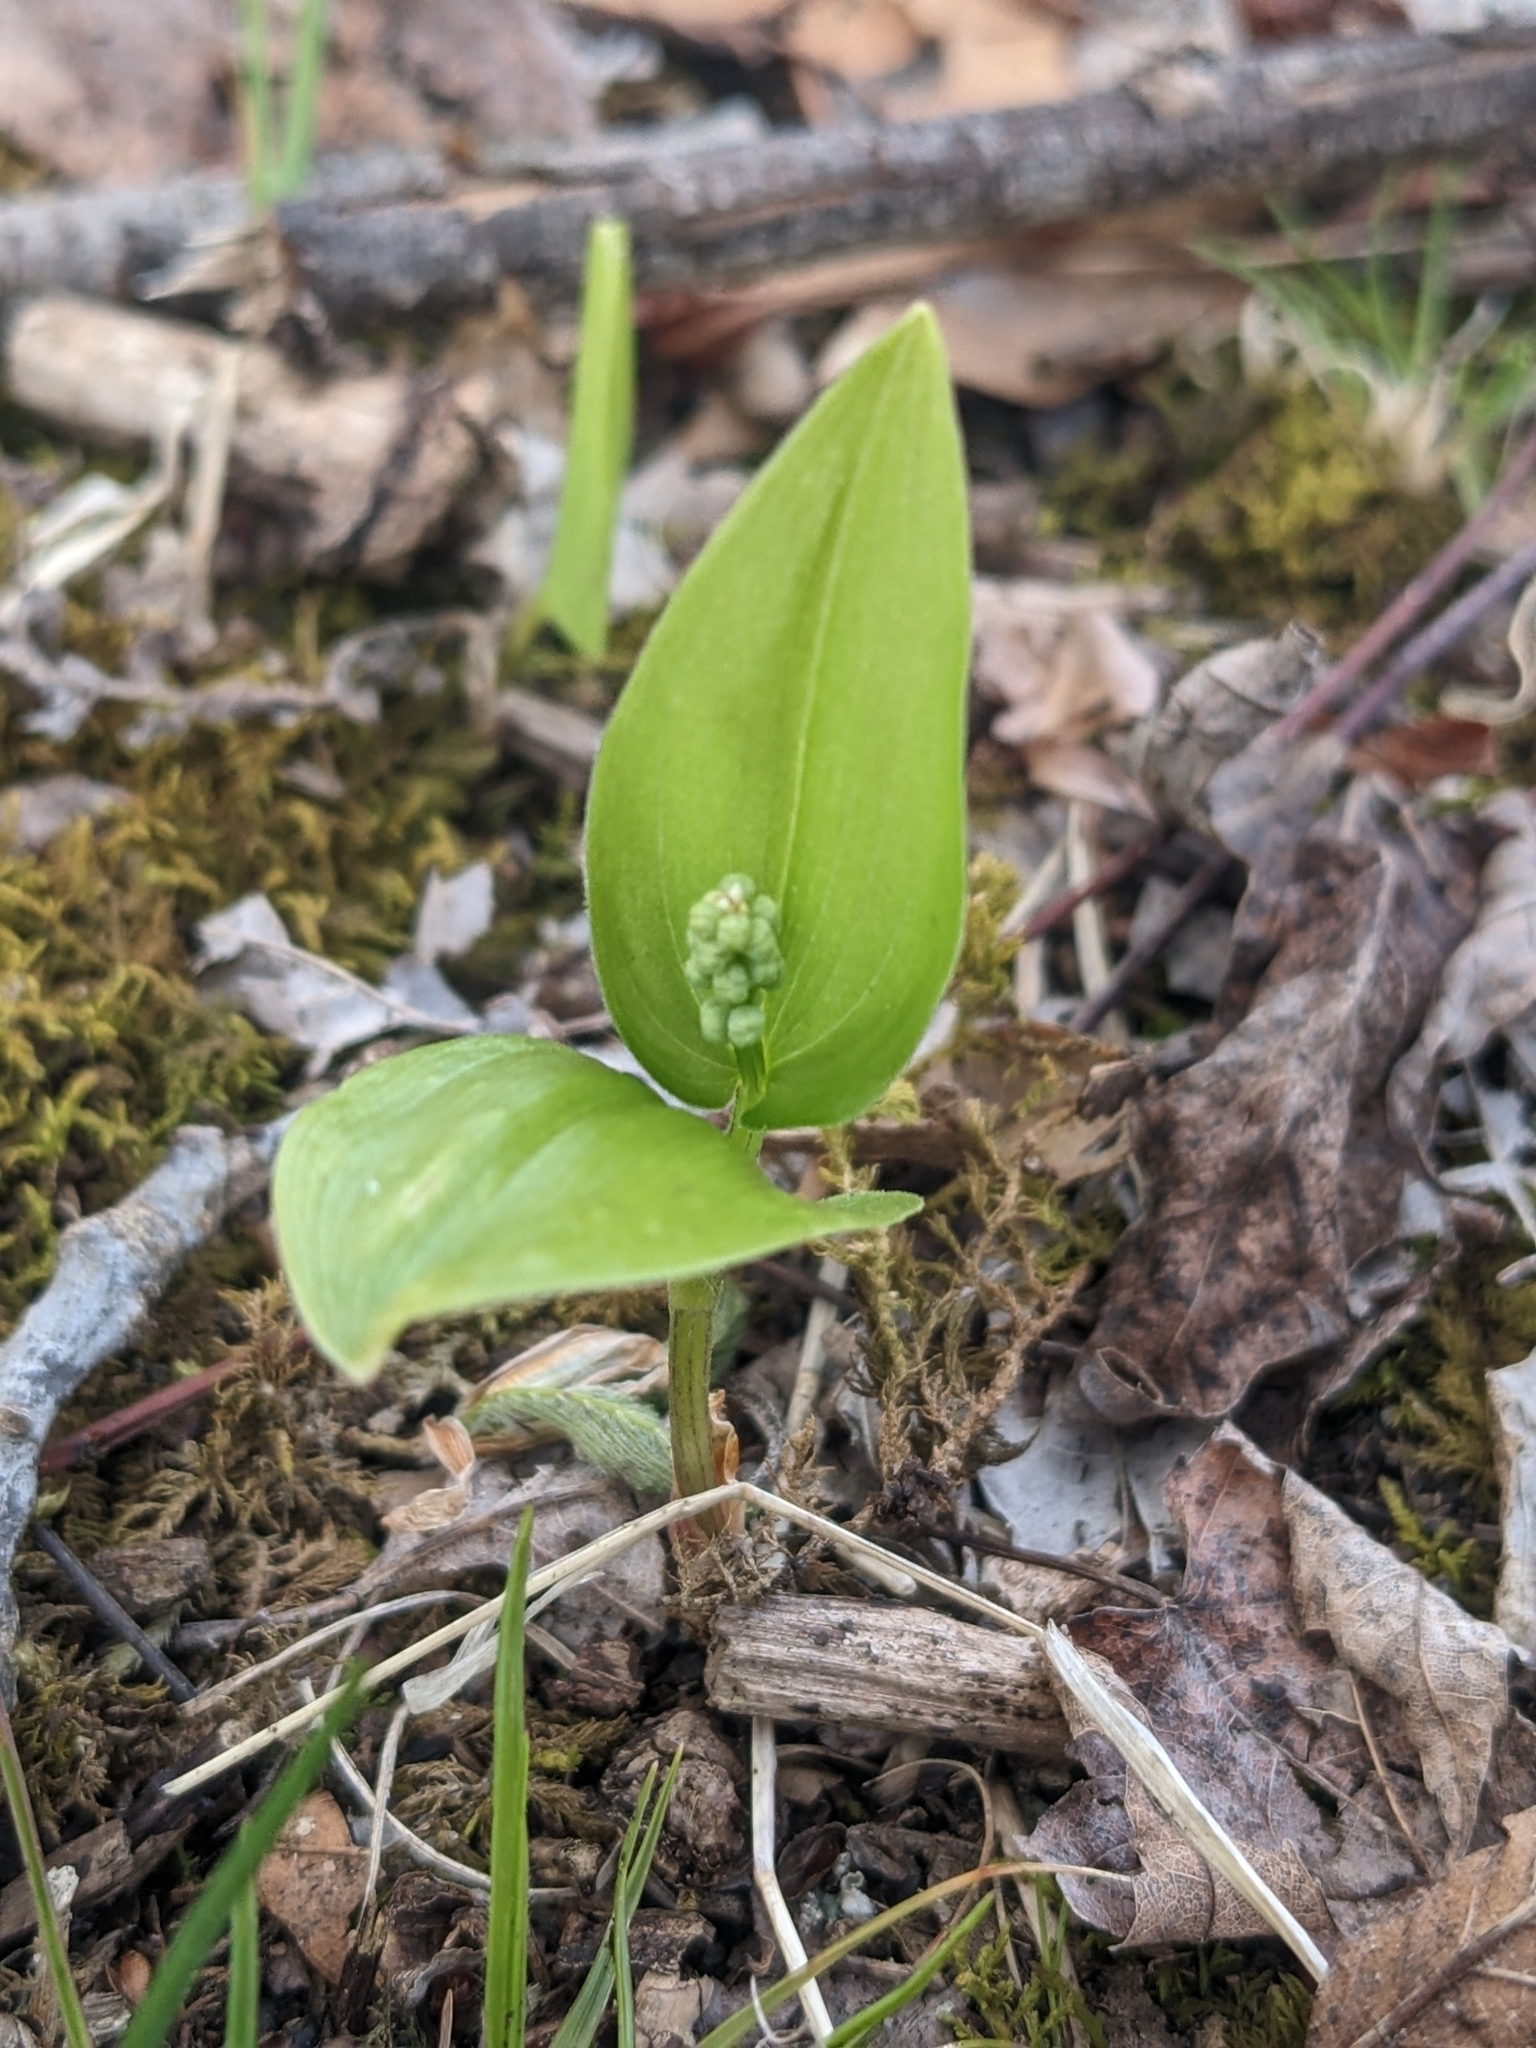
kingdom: Plantae
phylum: Tracheophyta
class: Liliopsida
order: Asparagales
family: Asparagaceae
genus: Maianthemum
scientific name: Maianthemum canadense
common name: False lily-of-the-valley
